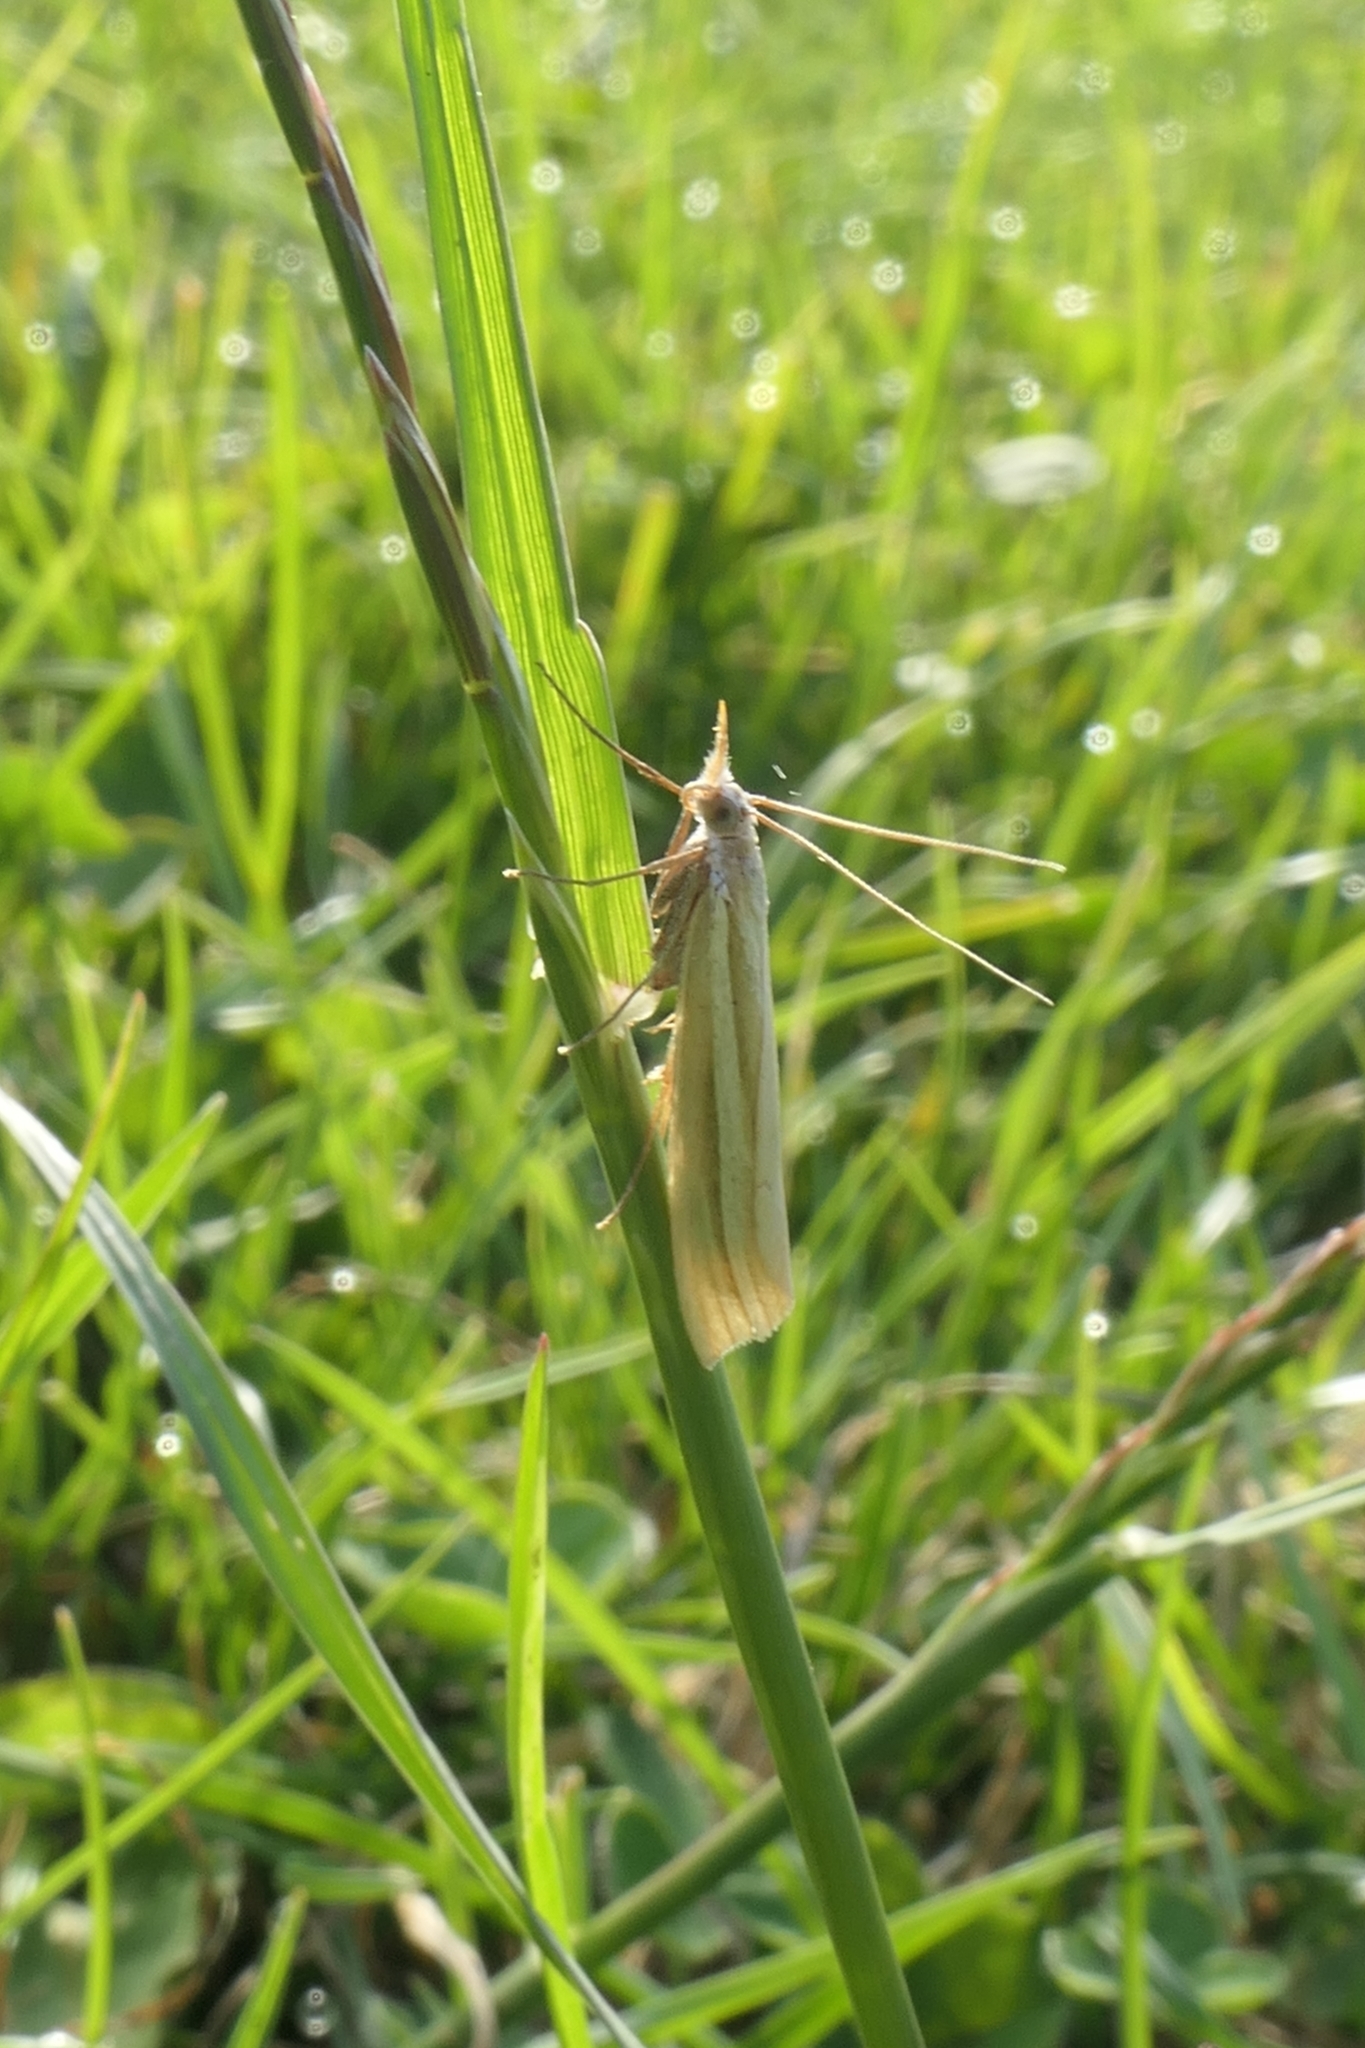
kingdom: Animalia
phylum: Arthropoda
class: Insecta
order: Lepidoptera
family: Crambidae
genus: Orocrambus
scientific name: Orocrambus lewisi
